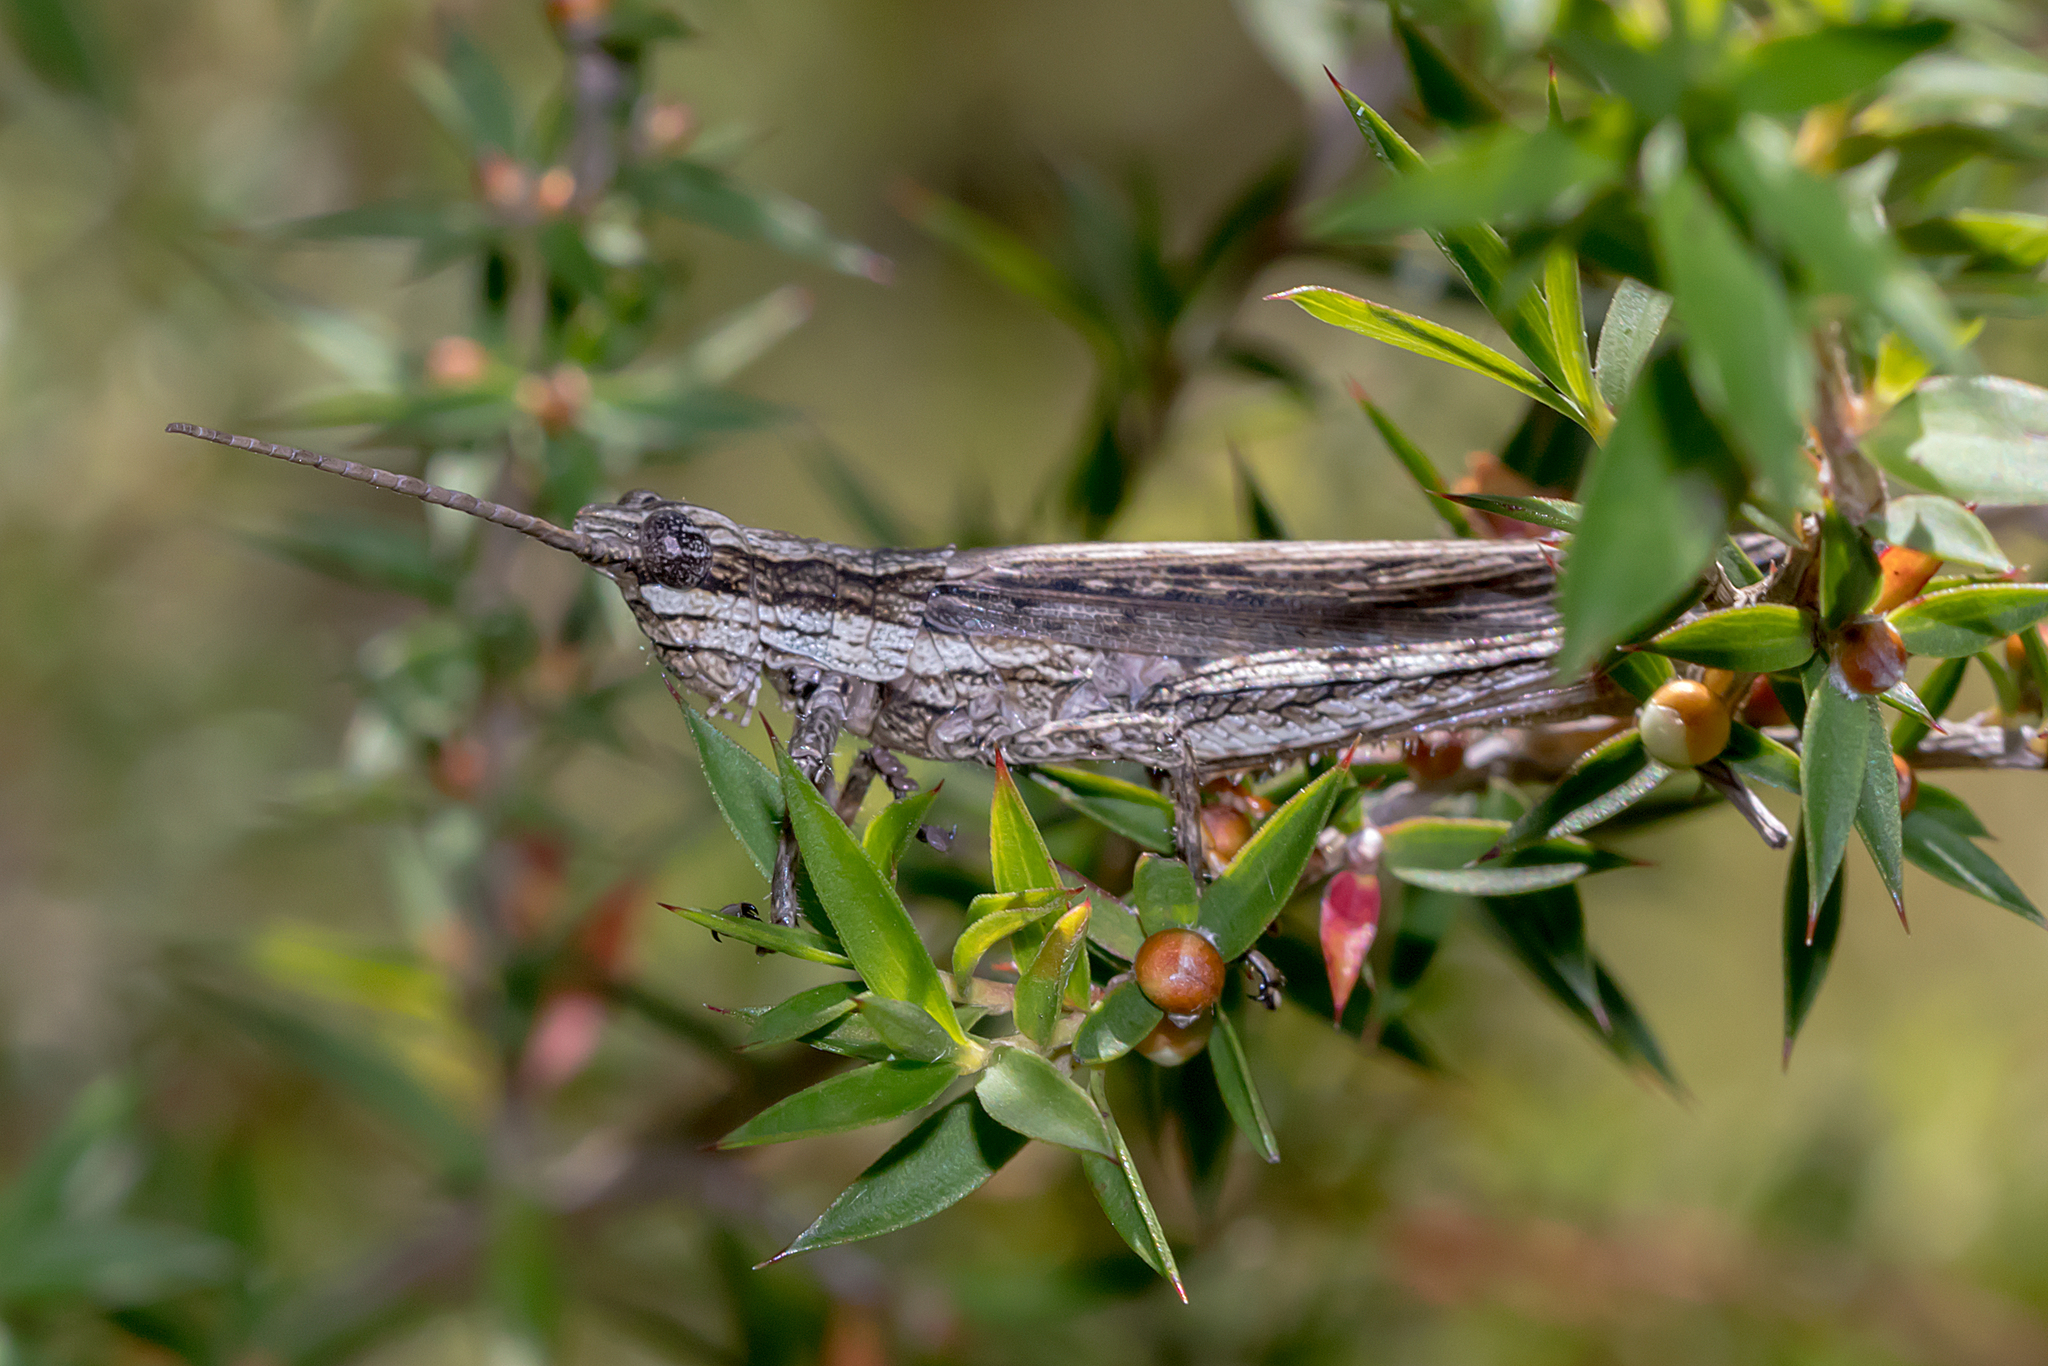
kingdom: Animalia
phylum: Arthropoda
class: Insecta
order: Orthoptera
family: Acrididae
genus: Coryphistes
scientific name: Coryphistes ruricola
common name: Bark-mimicking grasshopper
